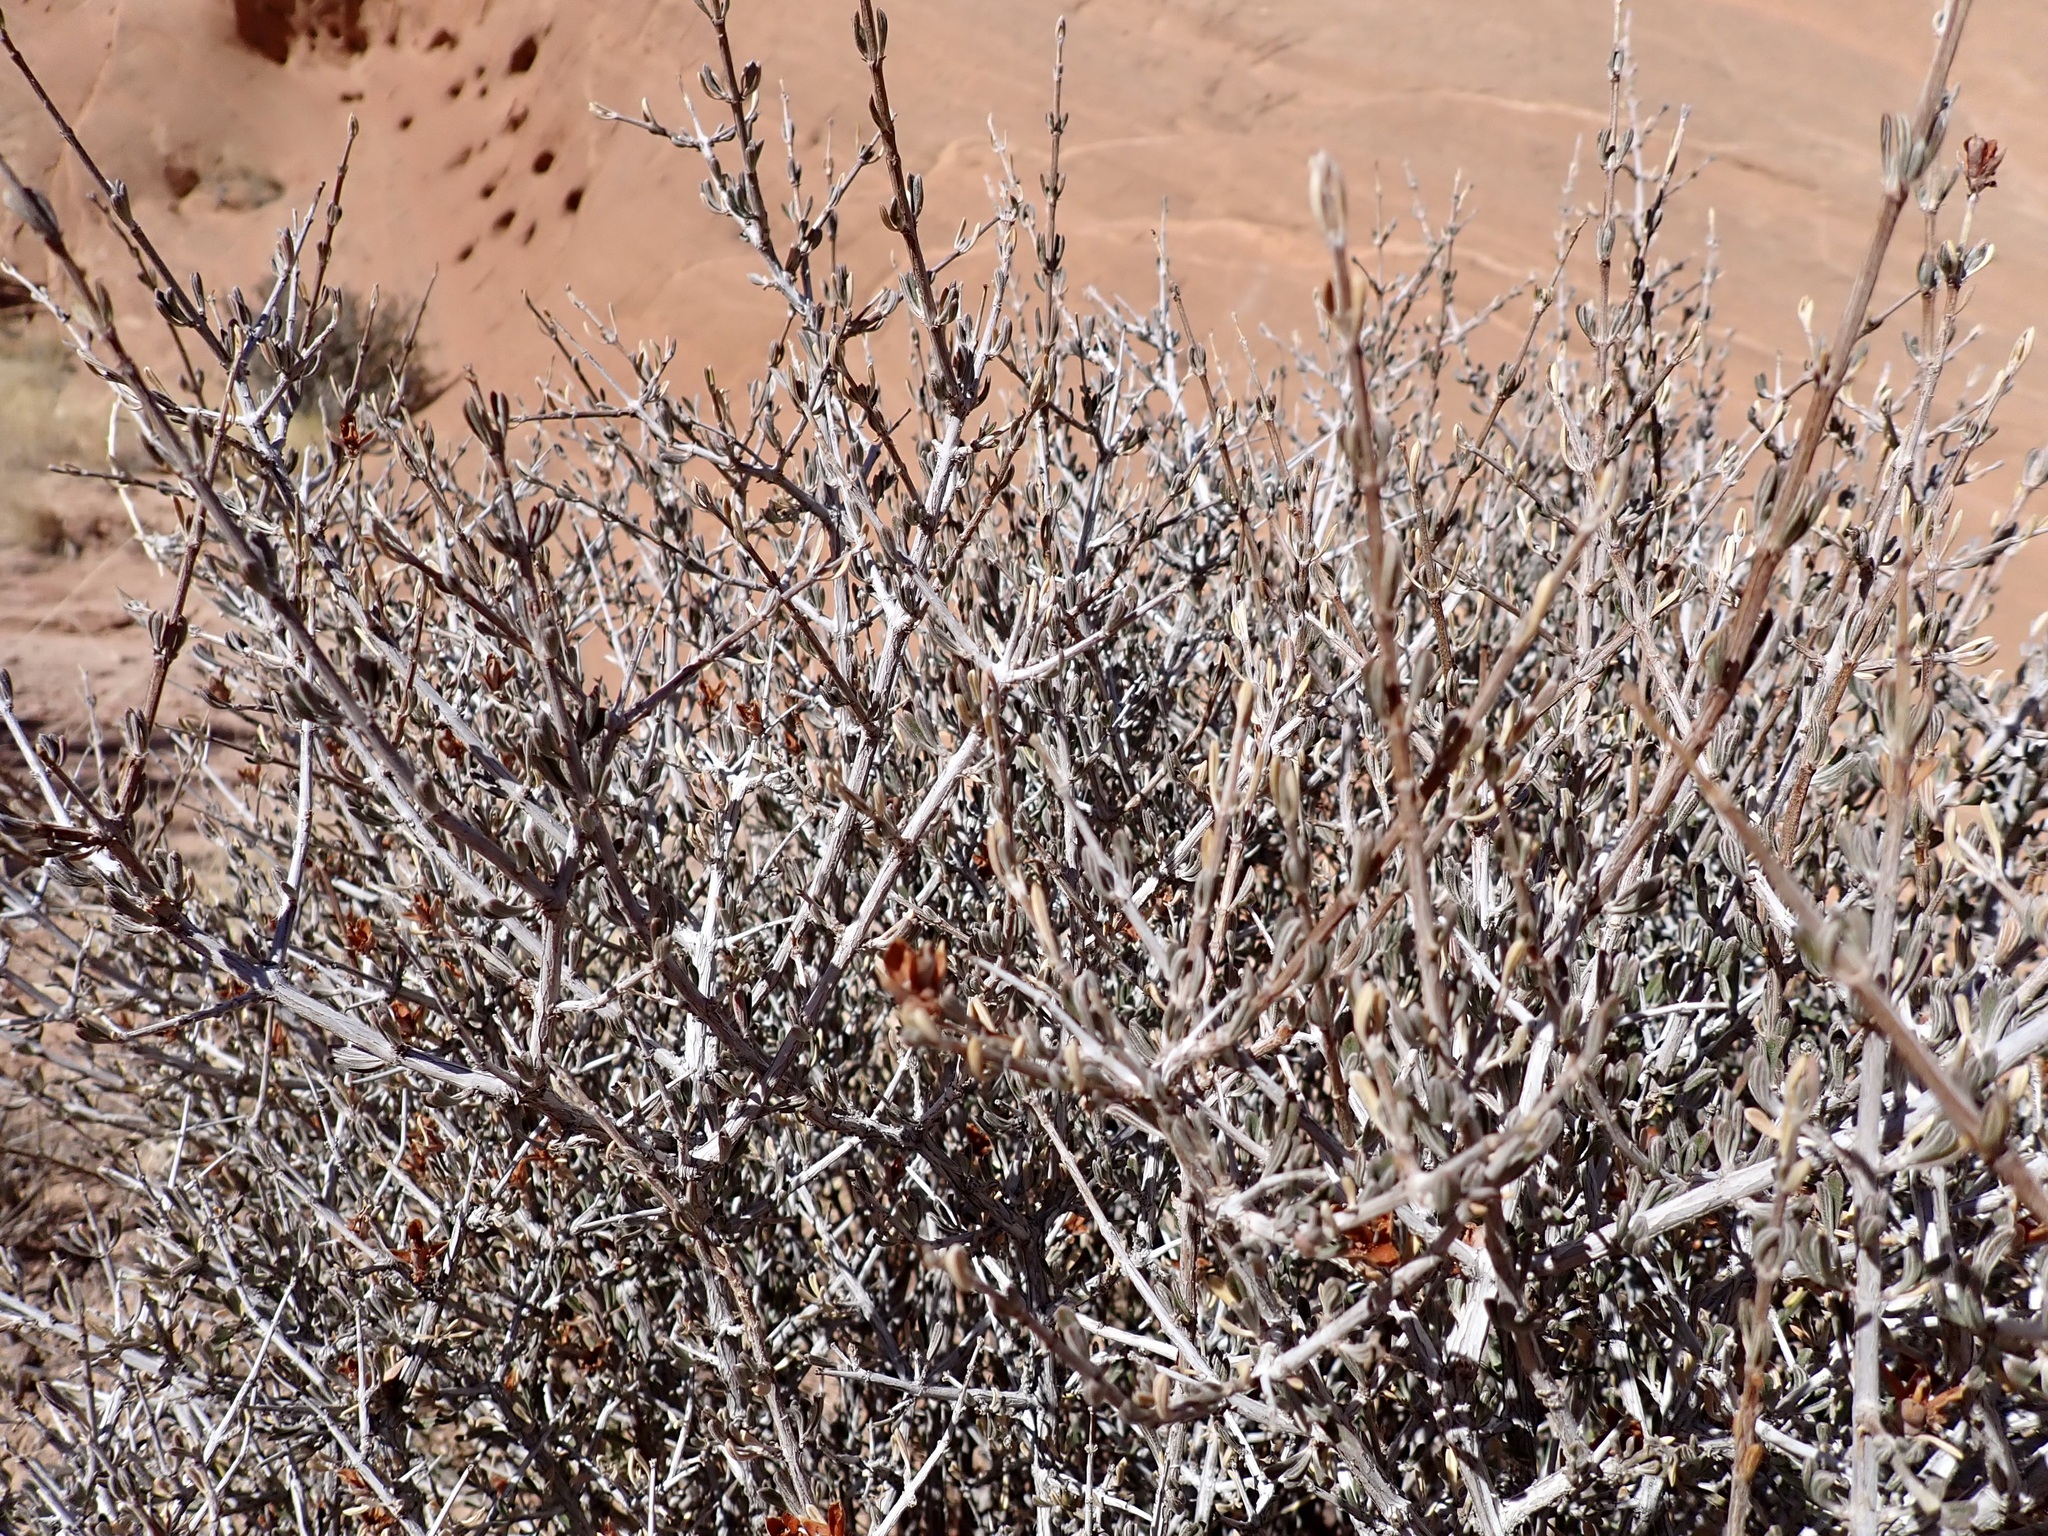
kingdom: Plantae
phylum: Tracheophyta
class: Magnoliopsida
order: Rosales
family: Rosaceae
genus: Coleogyne
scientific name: Coleogyne ramosissima
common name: Blackbrush
